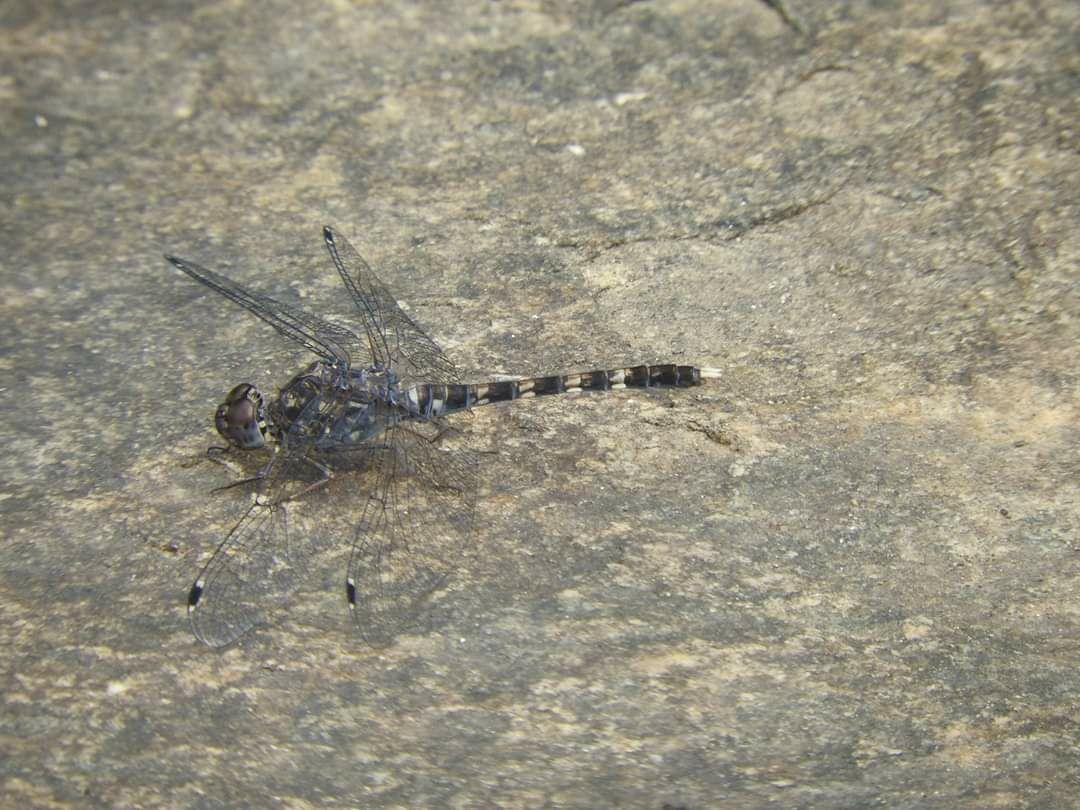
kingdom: Animalia
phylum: Arthropoda
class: Insecta
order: Odonata
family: Libellulidae
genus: Bradinopyga
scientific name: Bradinopyga geminata
